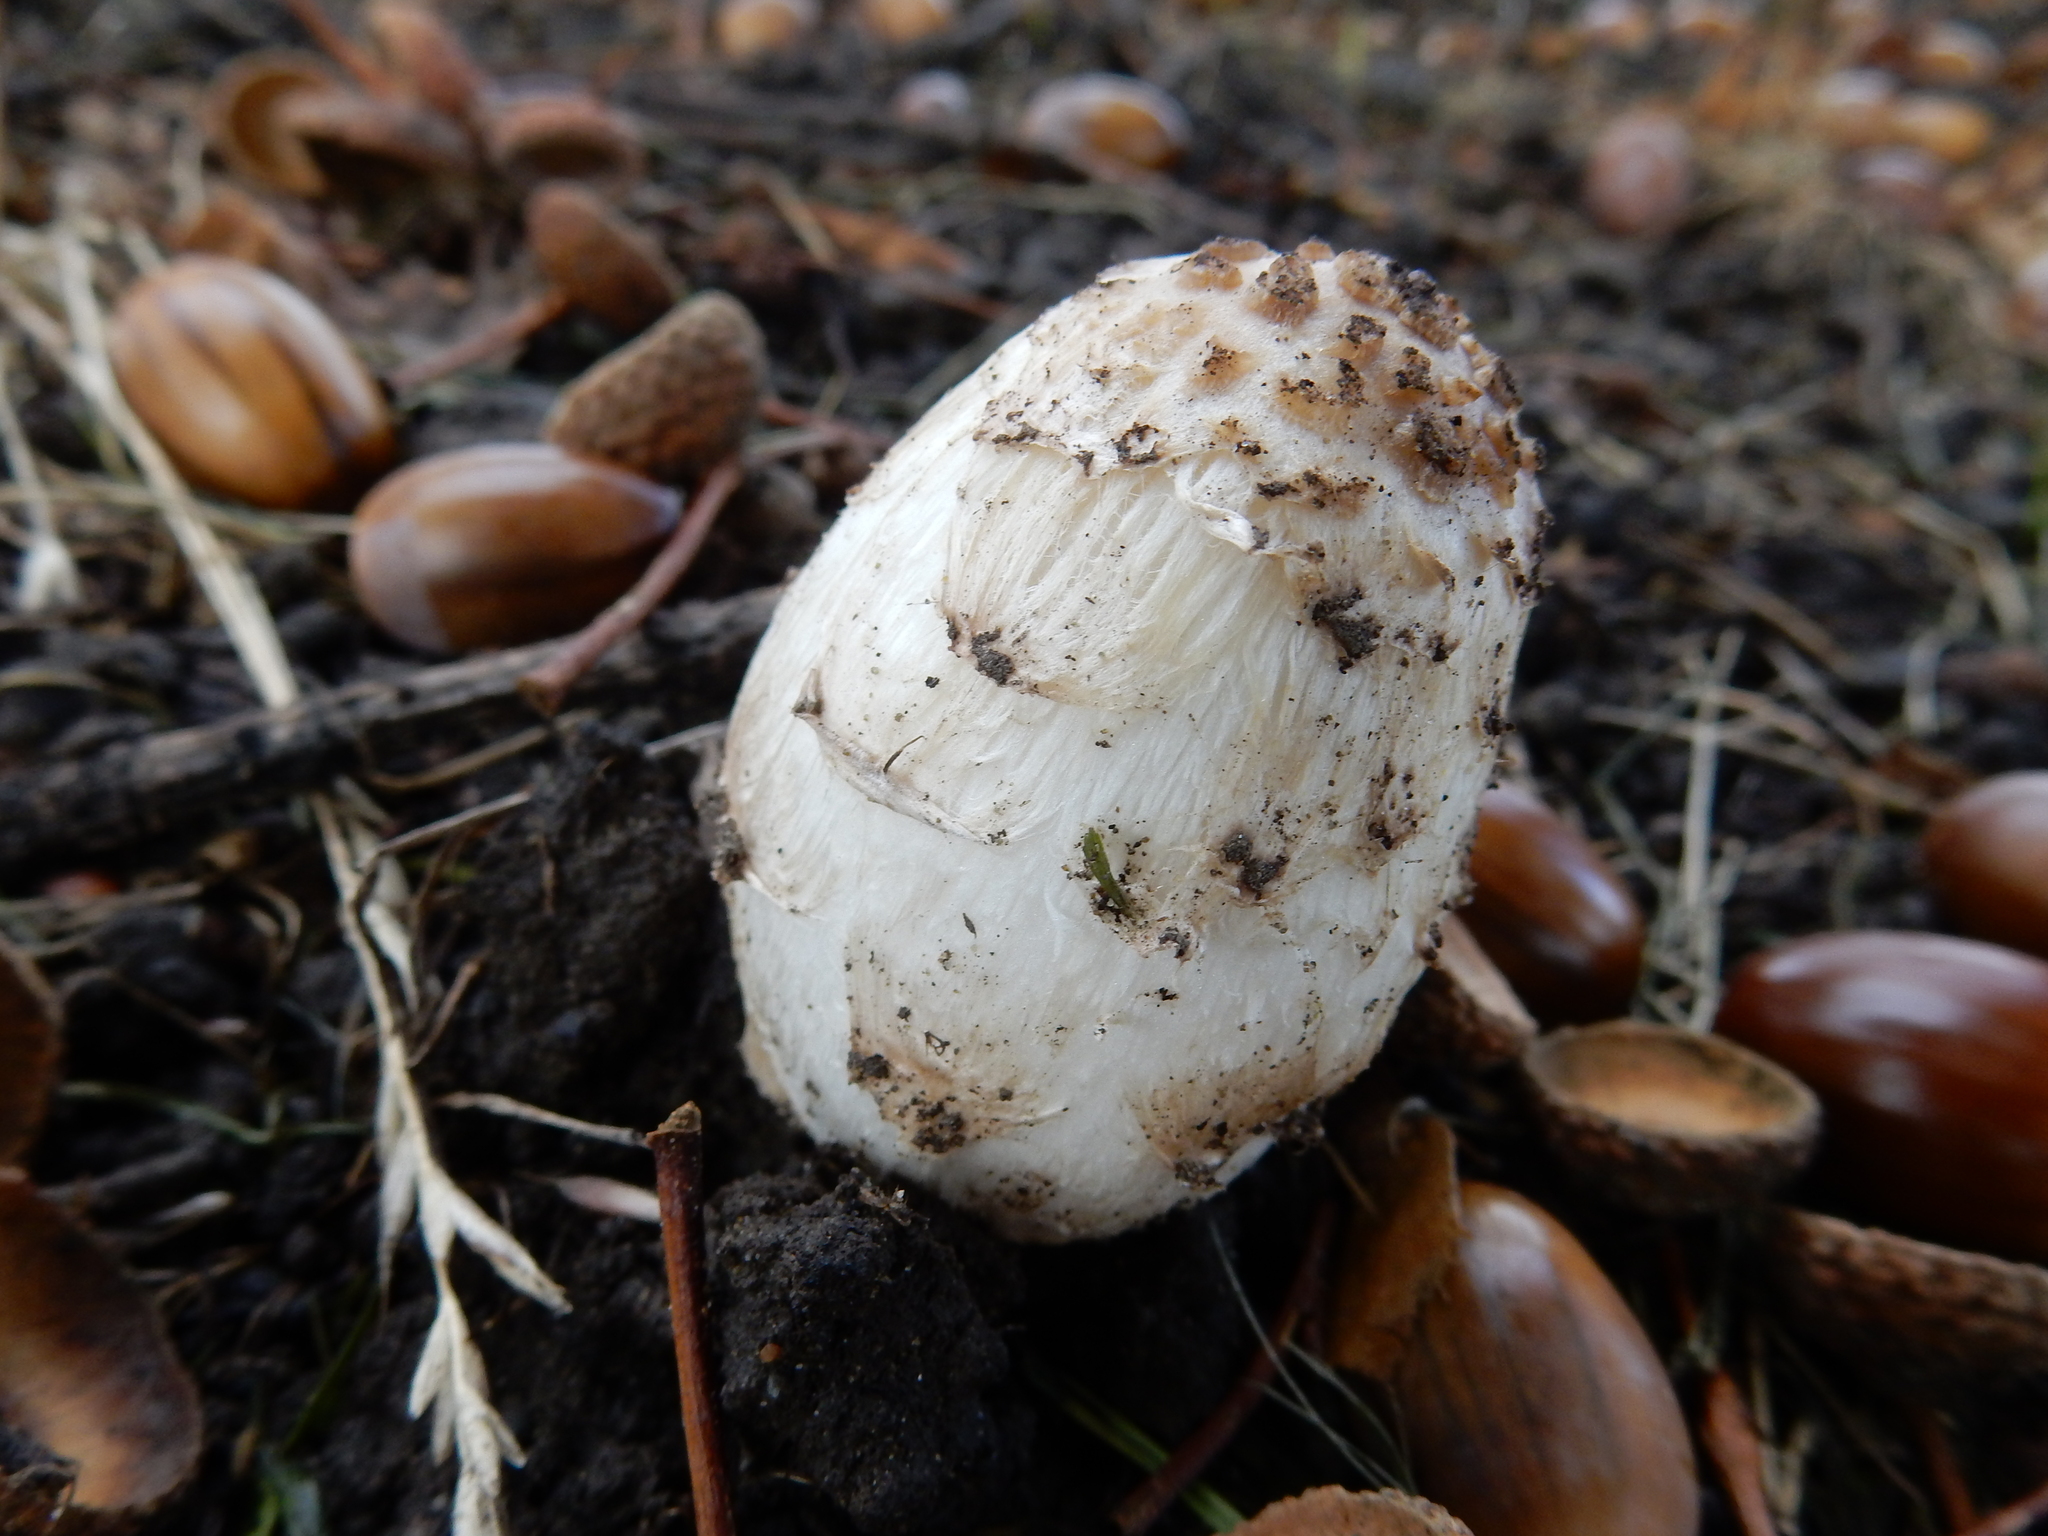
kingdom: Fungi
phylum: Basidiomycota
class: Agaricomycetes
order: Agaricales
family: Agaricaceae
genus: Coprinus
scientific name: Coprinus comatus
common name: Lawyer's wig
